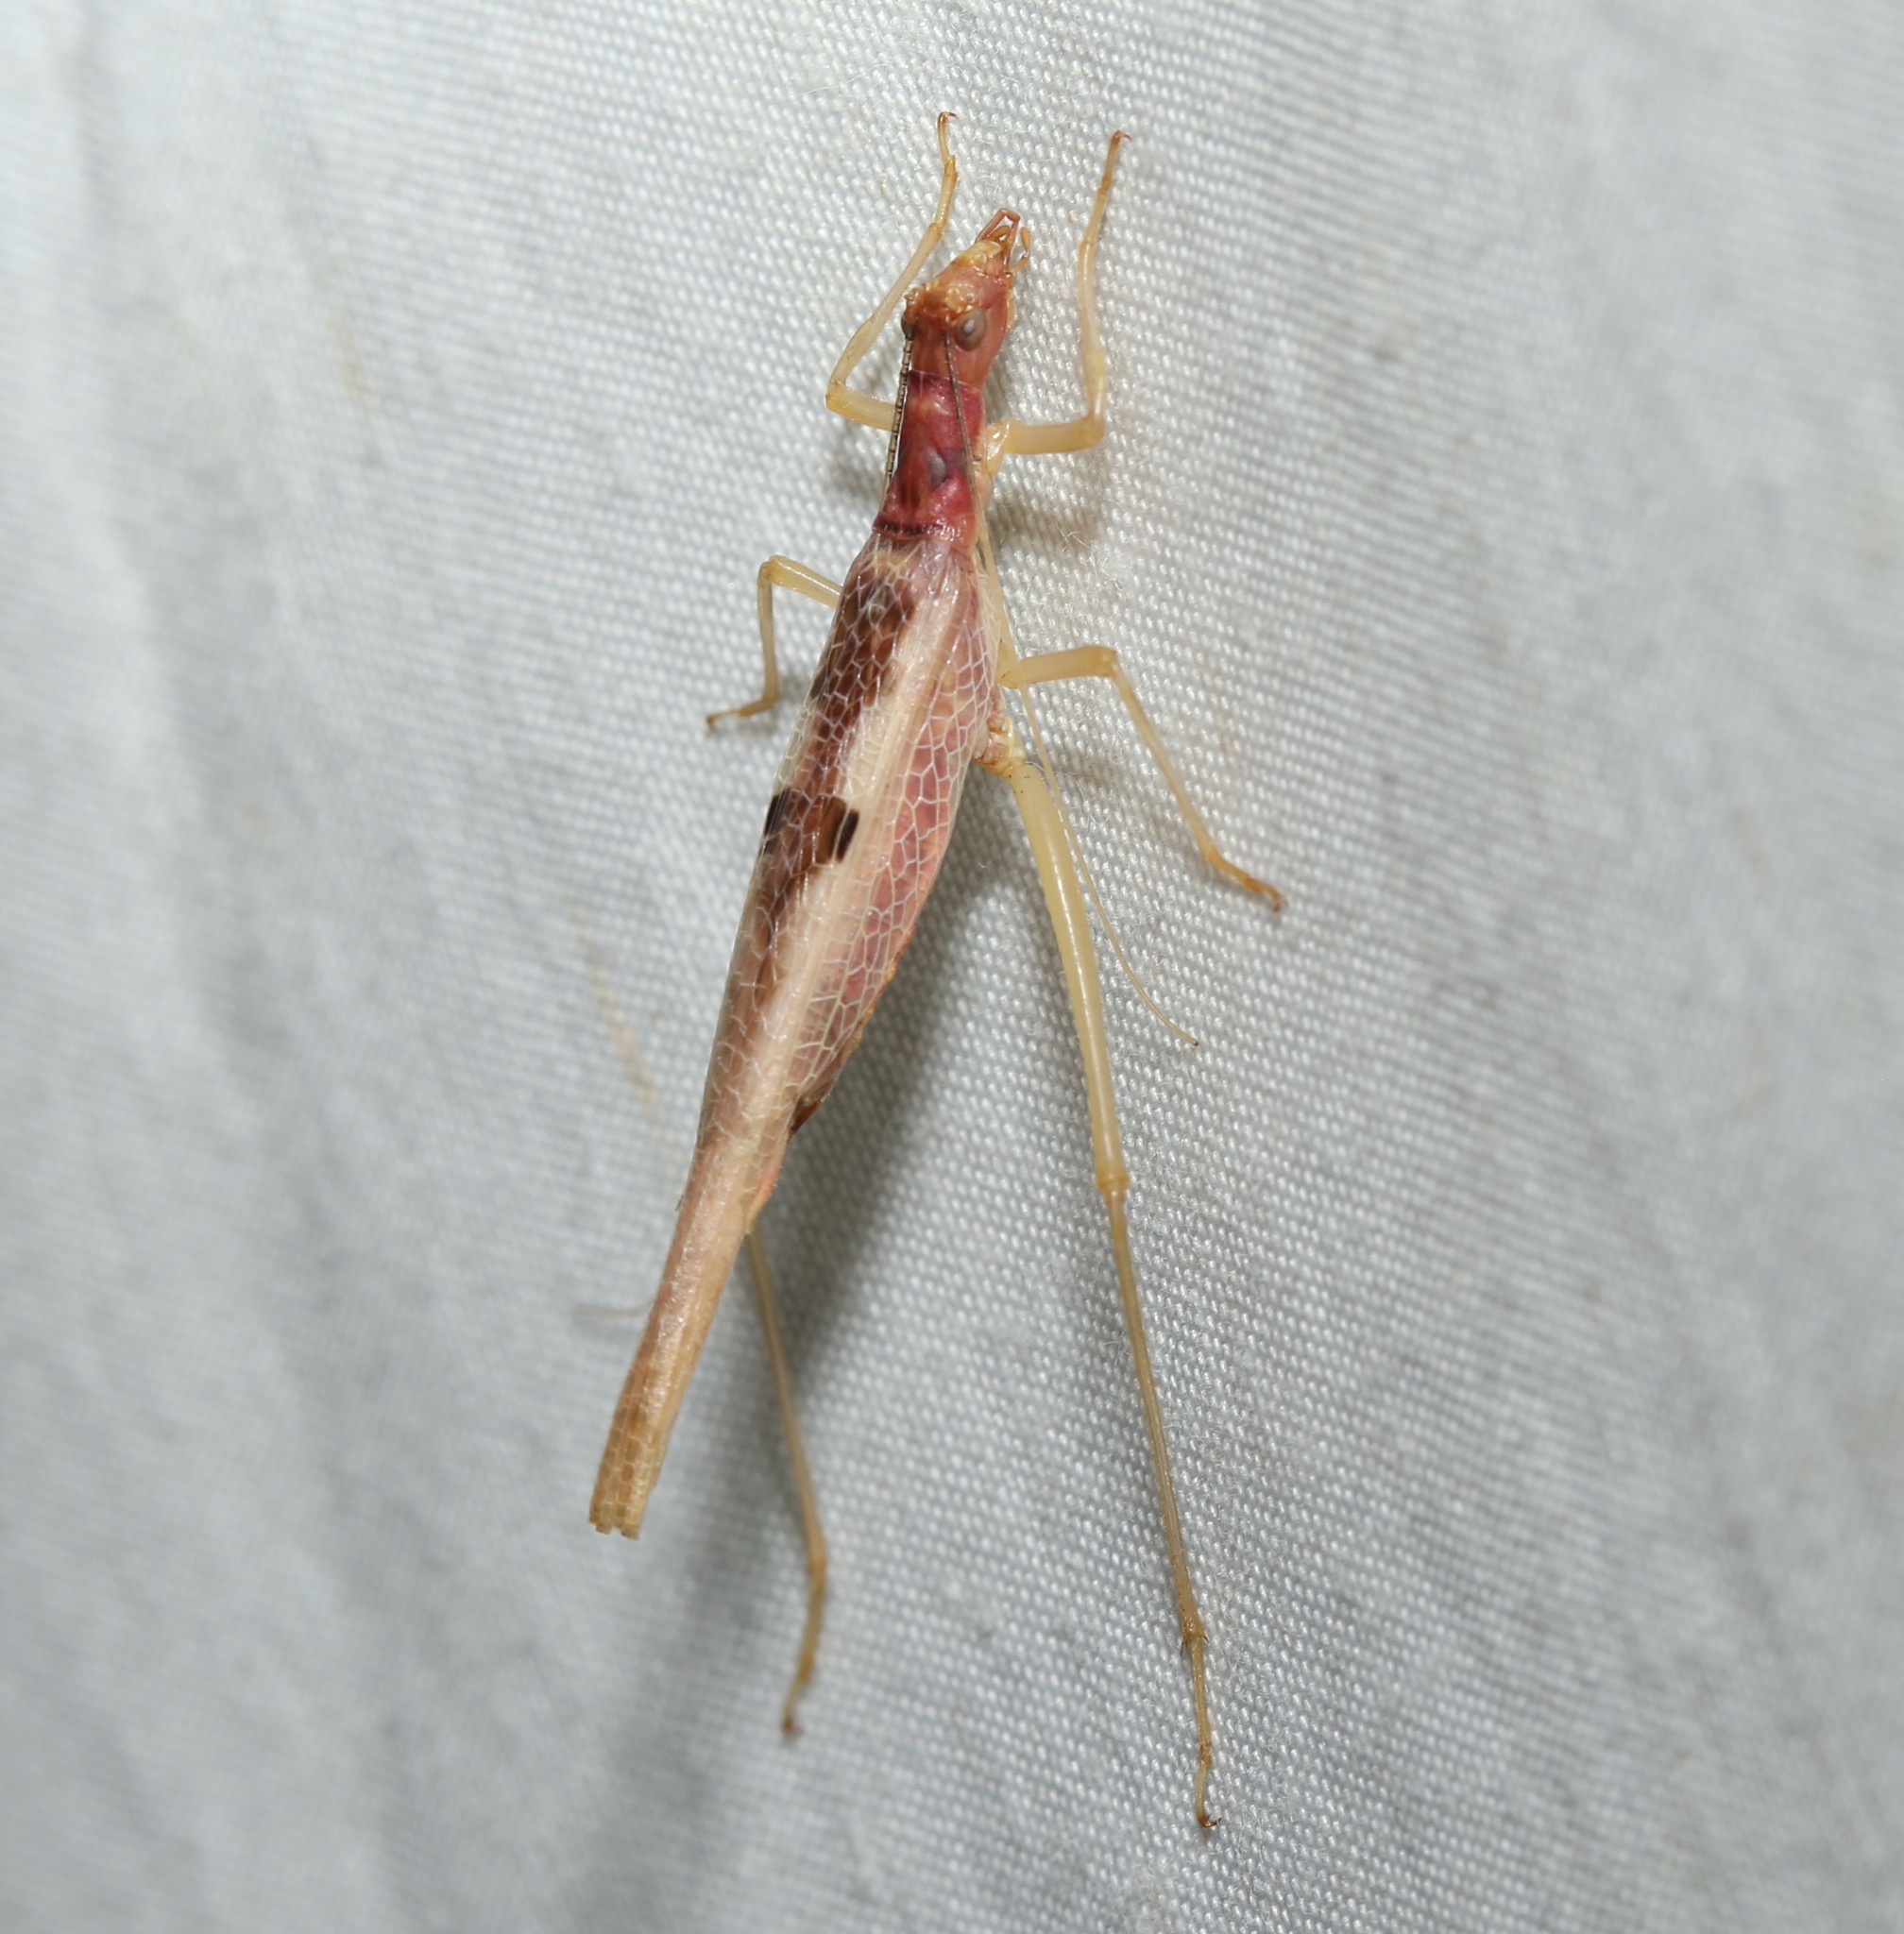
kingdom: Animalia
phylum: Arthropoda
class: Insecta
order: Orthoptera
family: Gryllidae
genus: Neoxabea
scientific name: Neoxabea bipunctata
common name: Two-spotted tree cricket
